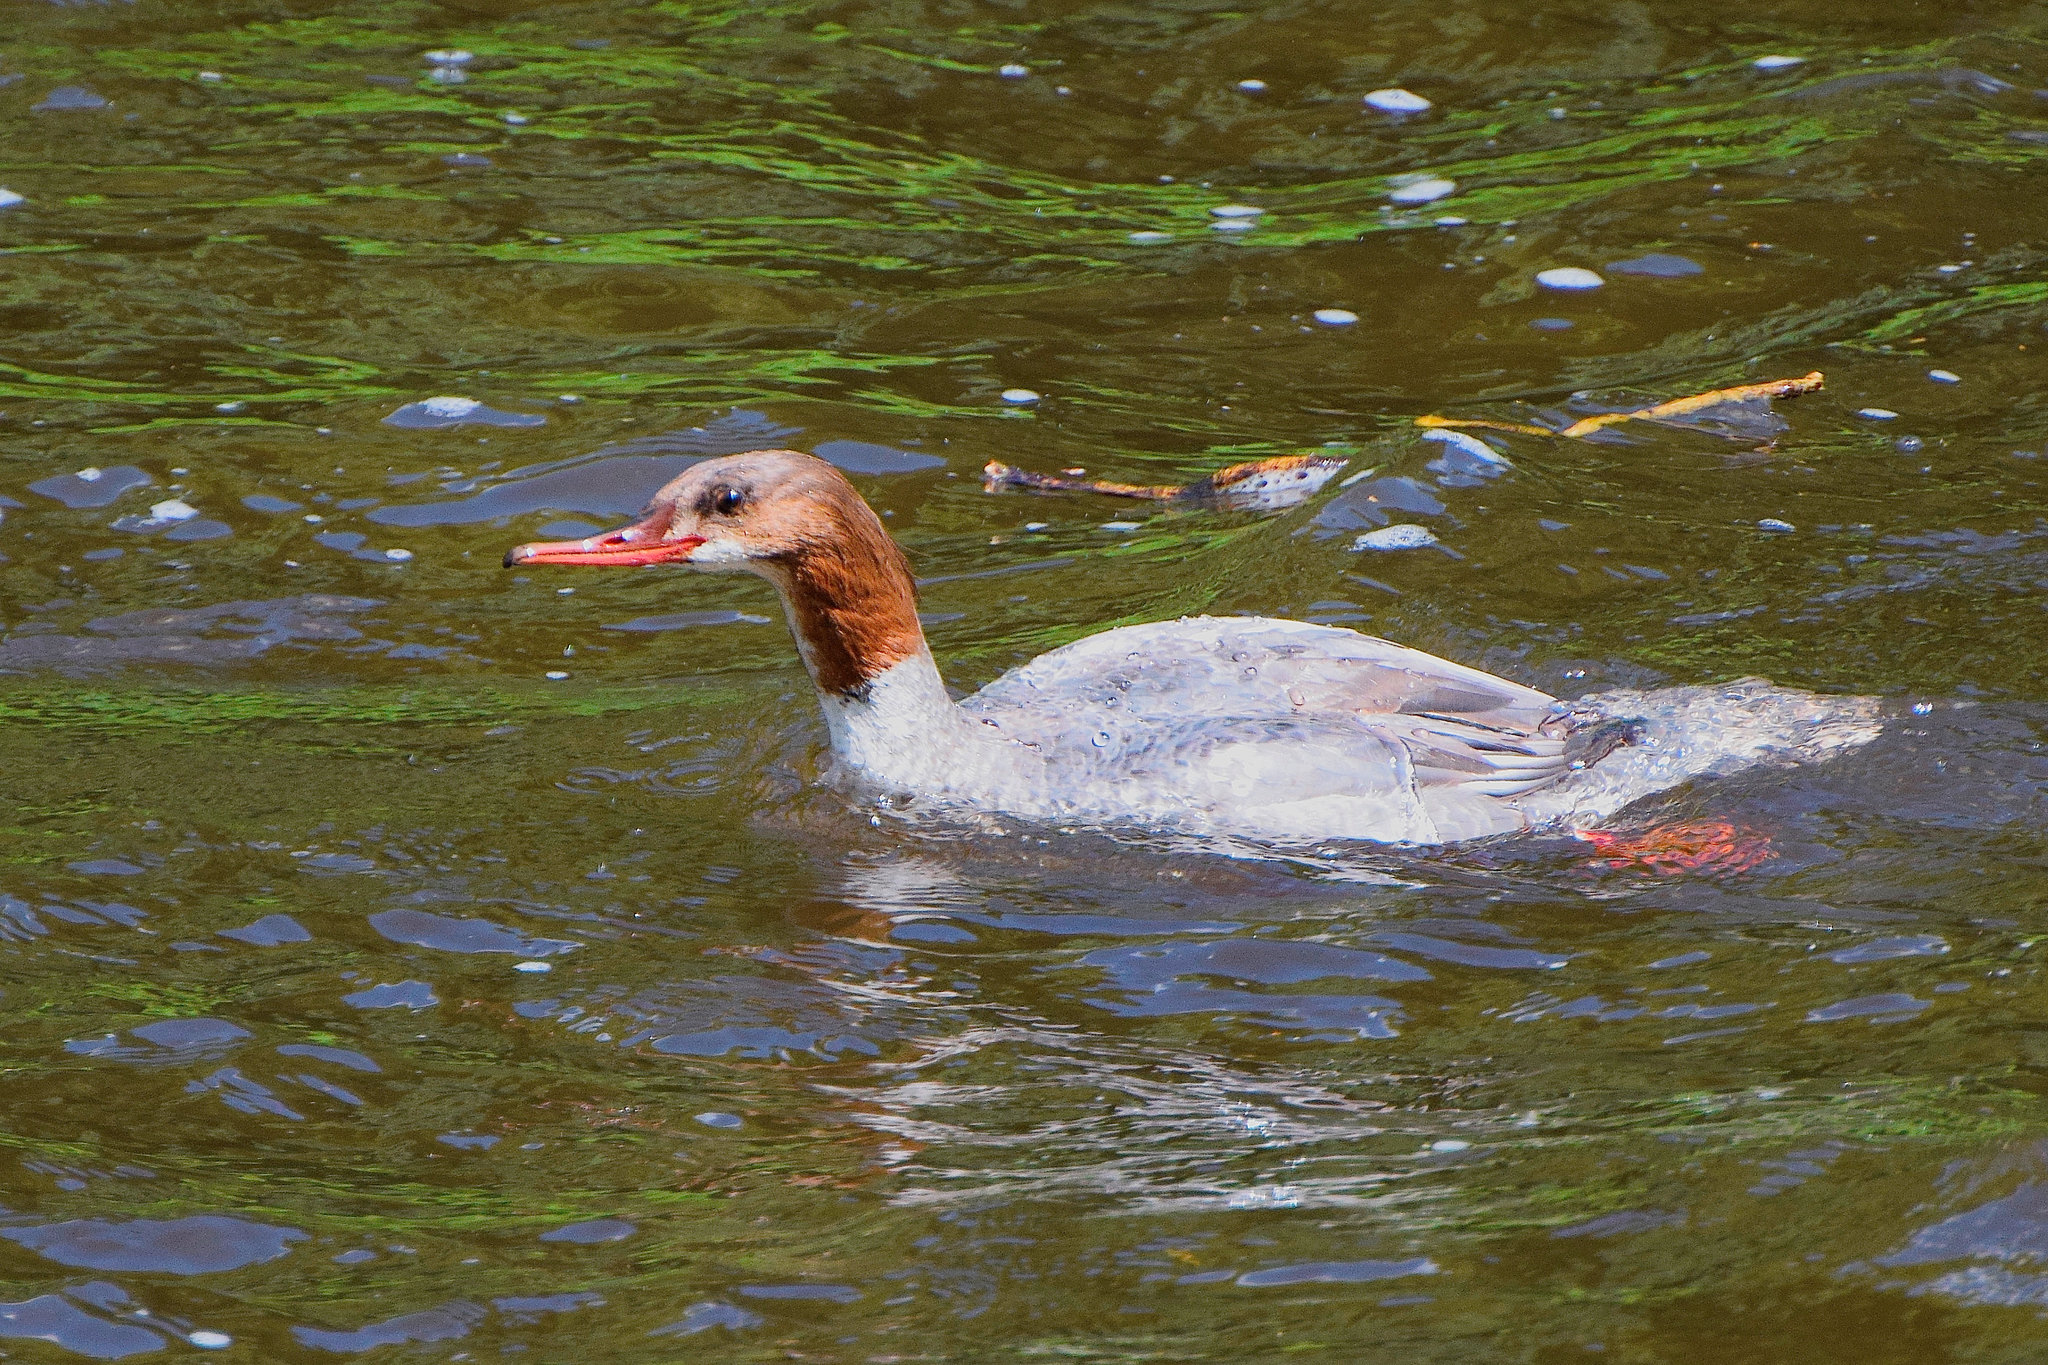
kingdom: Animalia
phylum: Chordata
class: Aves
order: Anseriformes
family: Anatidae
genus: Mergus
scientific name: Mergus merganser
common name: Common merganser
